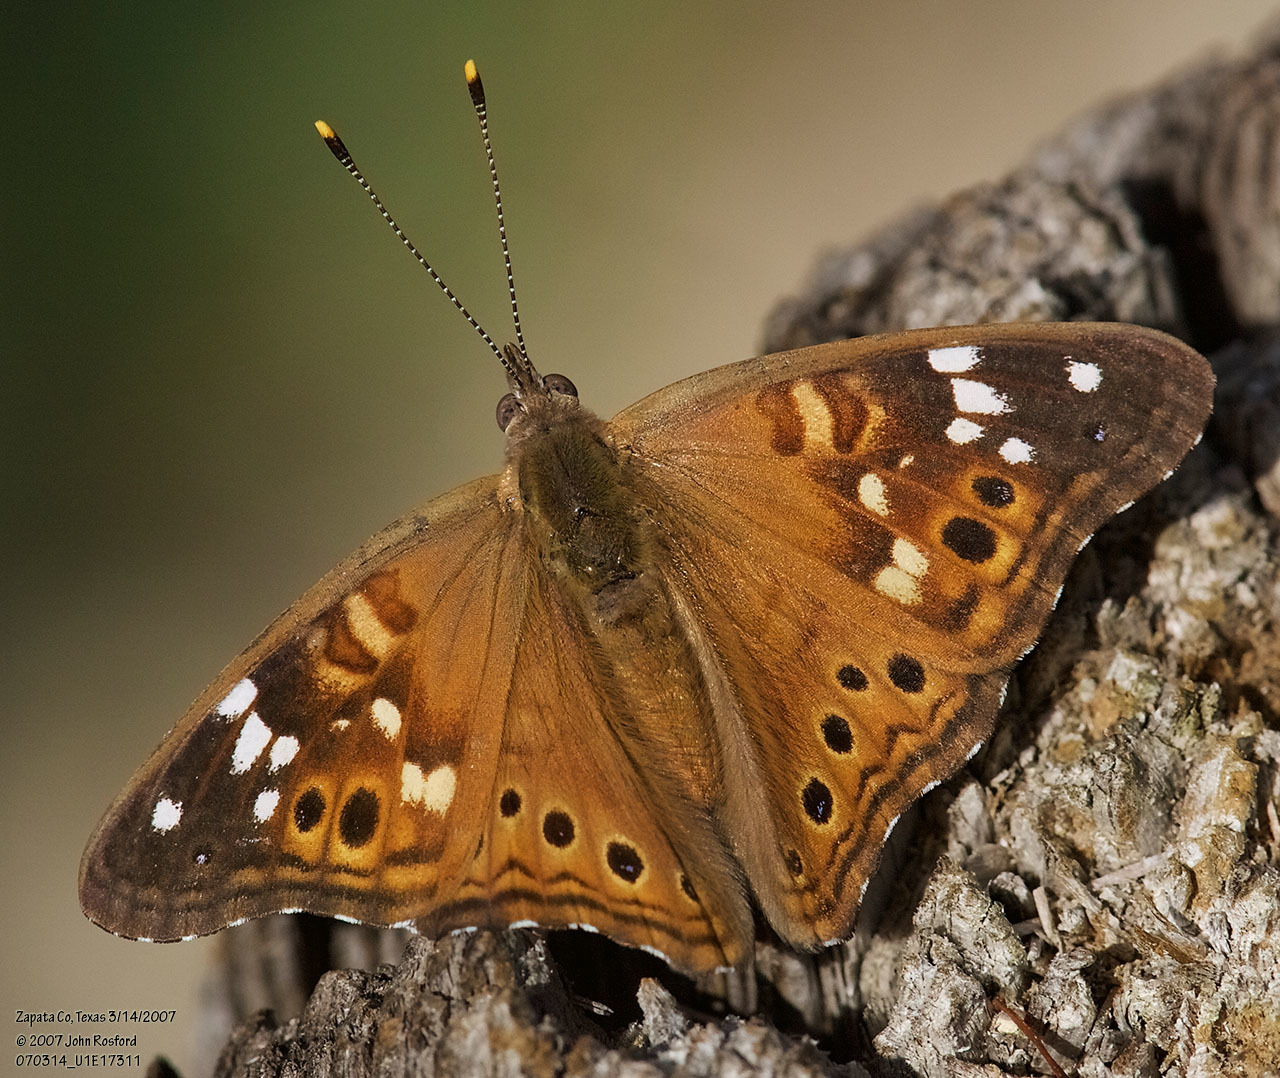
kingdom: Animalia
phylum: Arthropoda
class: Insecta
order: Lepidoptera
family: Nymphalidae
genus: Asterocampa
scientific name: Asterocampa leilia
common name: Empress leilia
